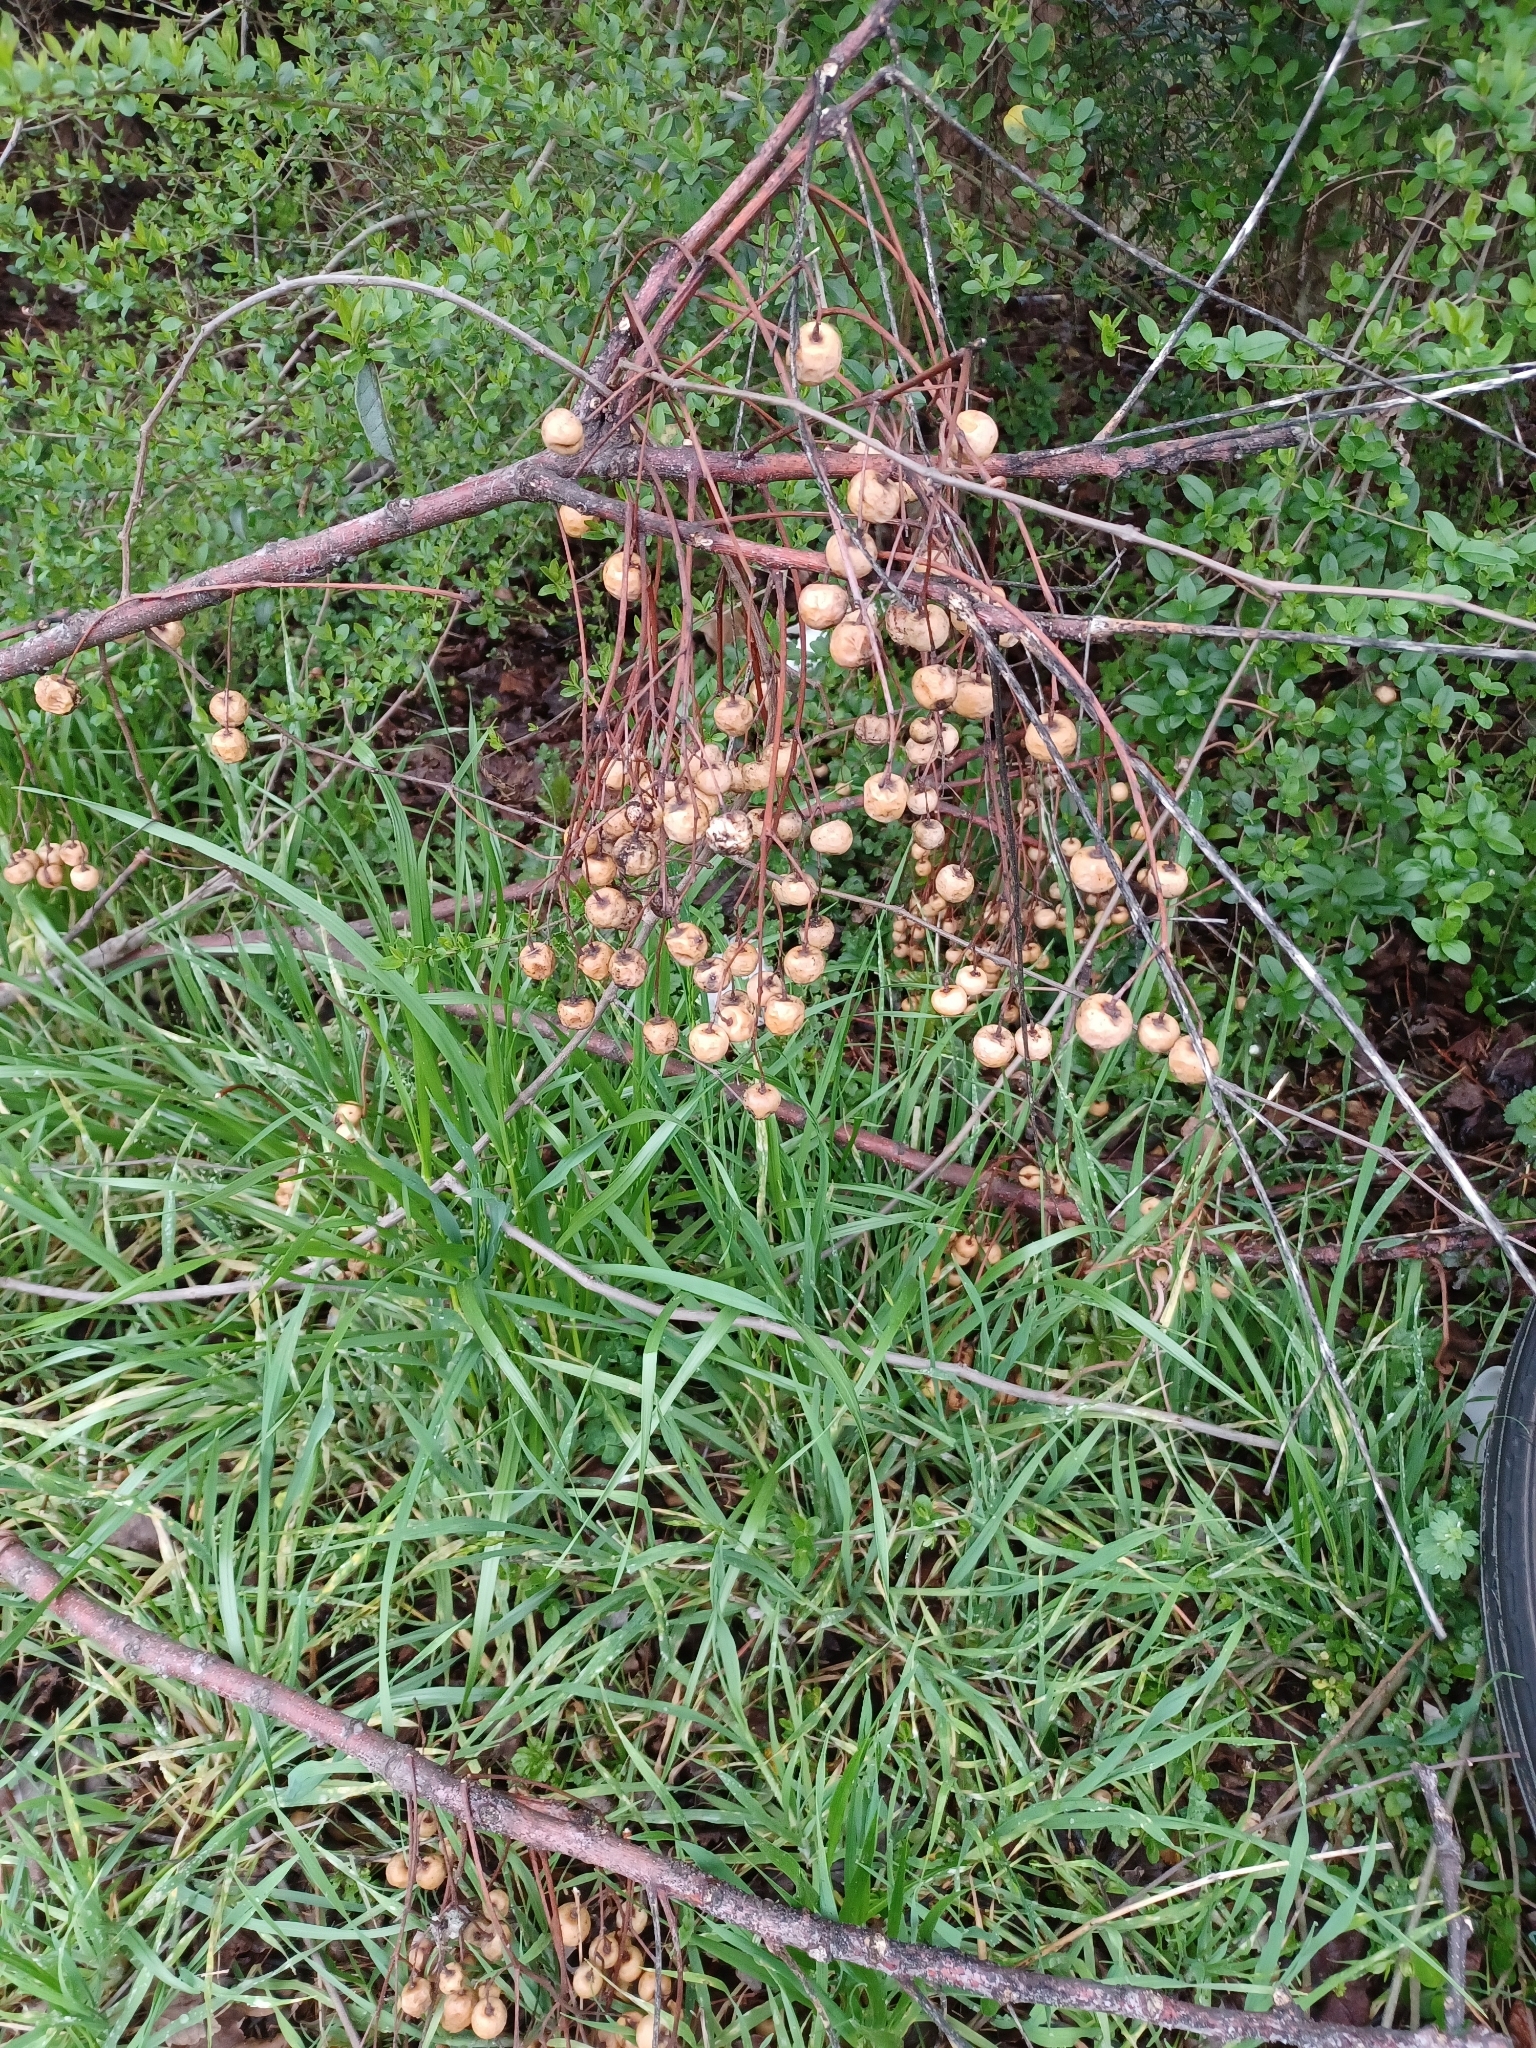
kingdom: Plantae
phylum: Tracheophyta
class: Magnoliopsida
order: Sapindales
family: Meliaceae
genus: Melia
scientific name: Melia azedarach
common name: Chinaberrytree
